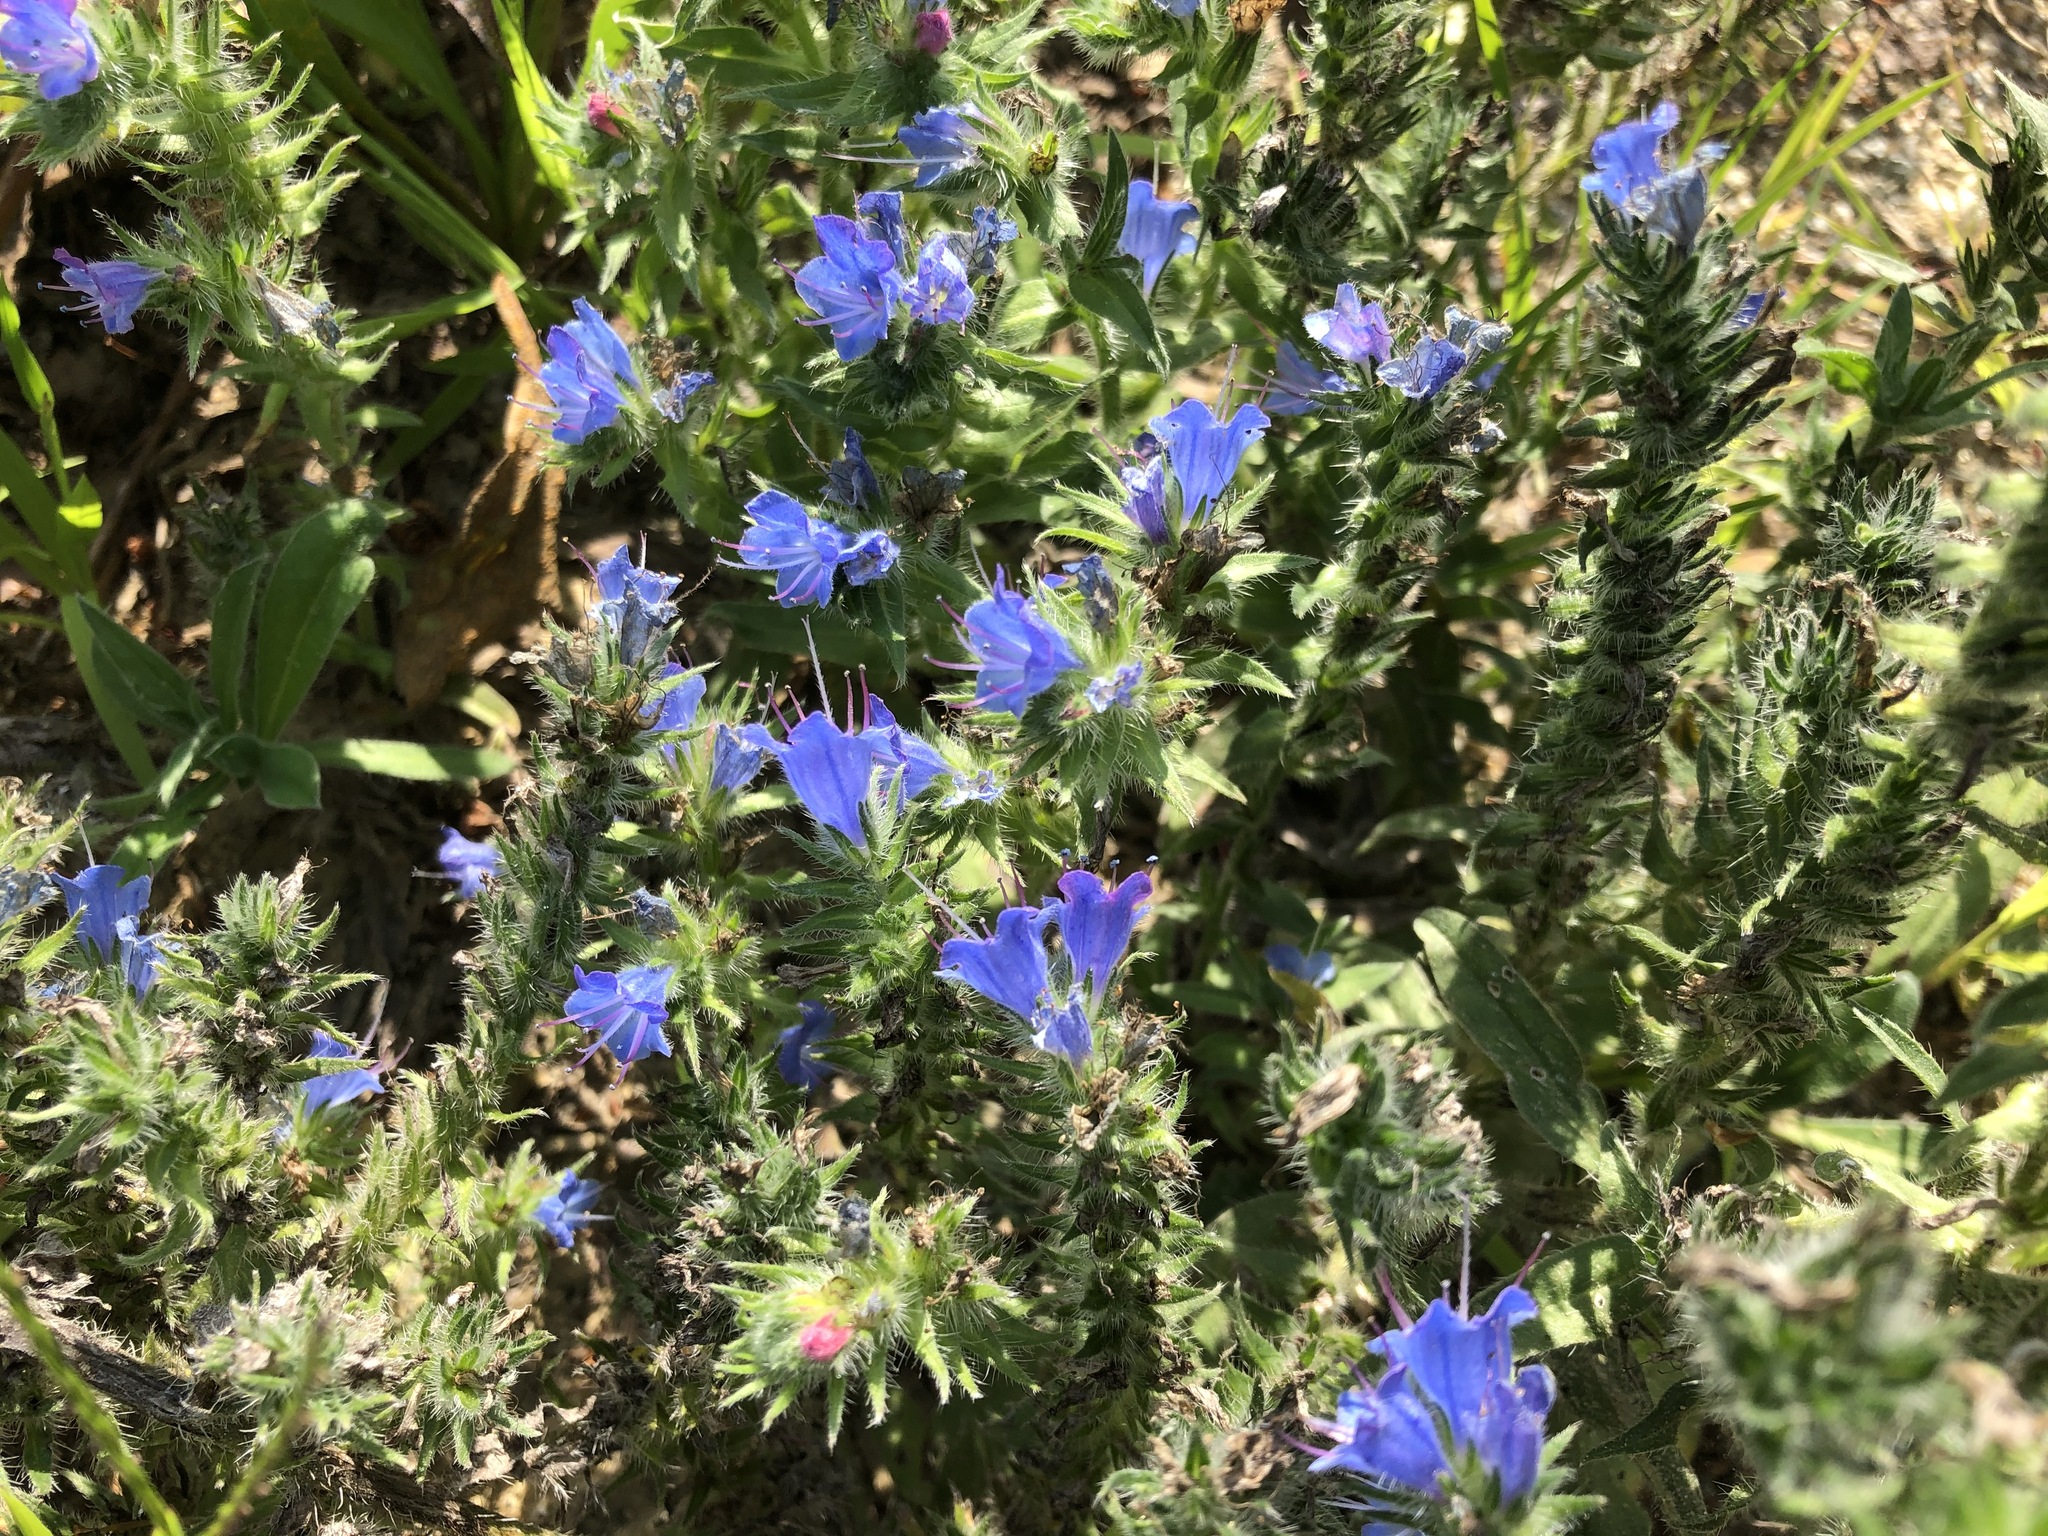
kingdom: Plantae
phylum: Tracheophyta
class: Magnoliopsida
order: Boraginales
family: Boraginaceae
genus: Echium
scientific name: Echium vulgare
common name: Common viper's bugloss
